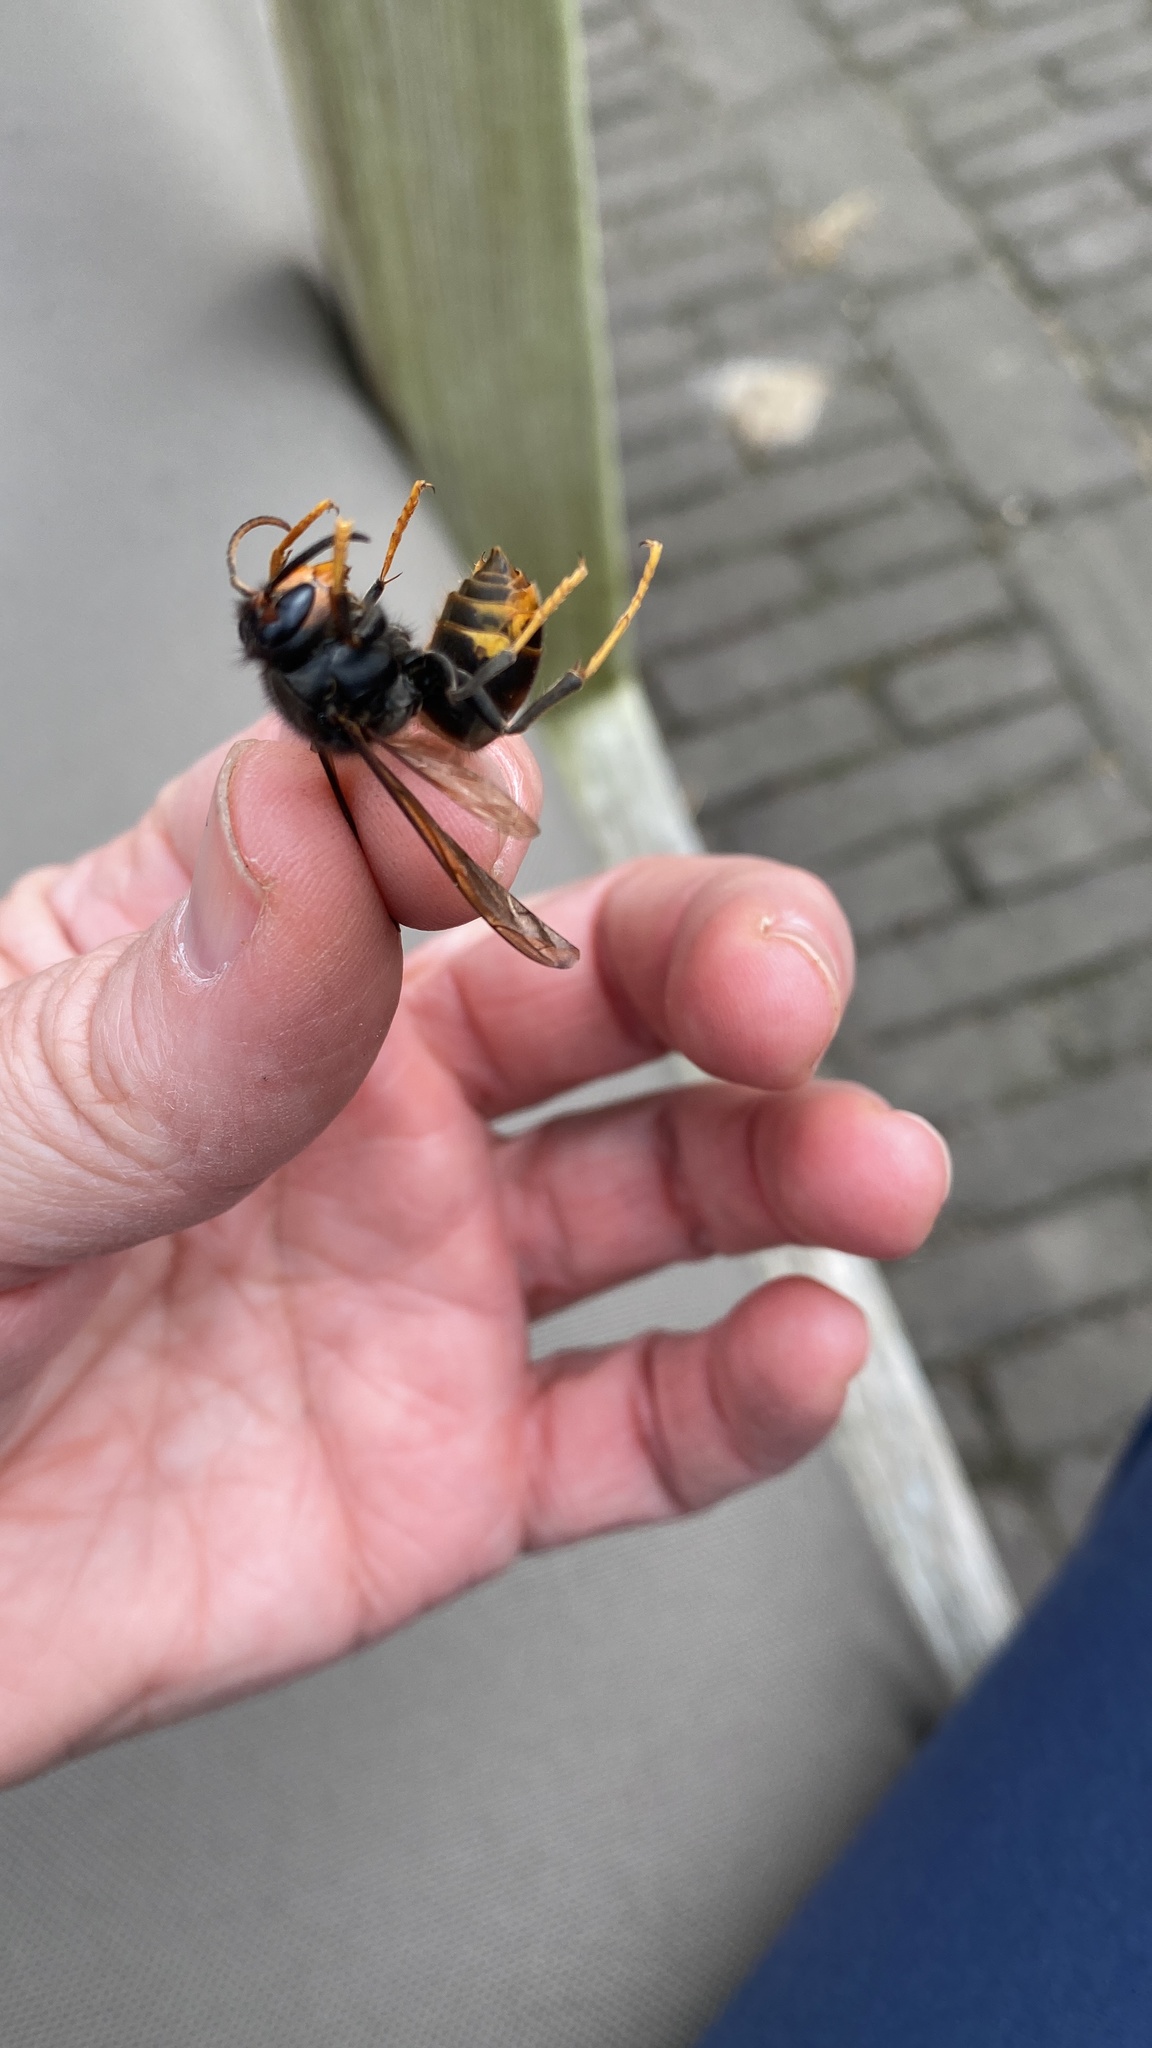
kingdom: Animalia
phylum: Arthropoda
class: Insecta
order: Hymenoptera
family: Vespidae
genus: Vespa
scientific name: Vespa velutina
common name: Asian hornet
